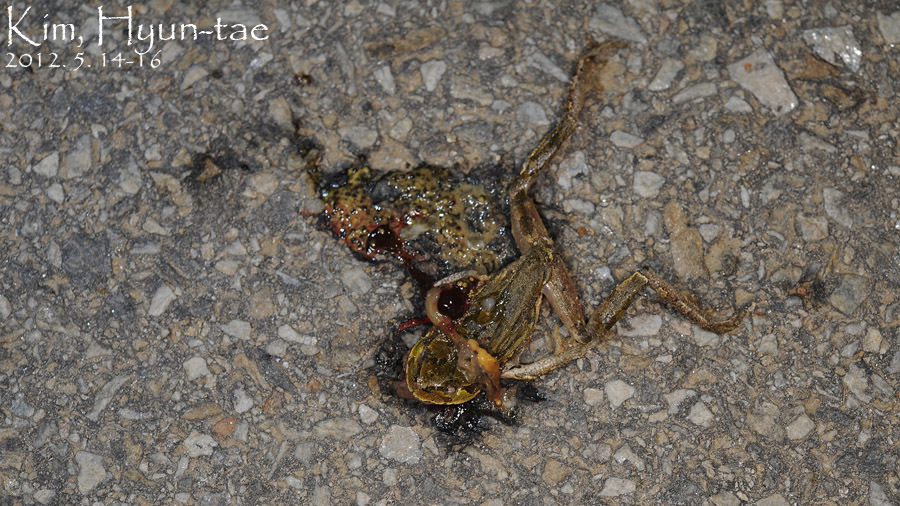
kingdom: Animalia
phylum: Chordata
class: Amphibia
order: Anura
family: Hylidae
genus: Dryophytes
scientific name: Dryophytes japonicus
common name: Japanese treefrog
